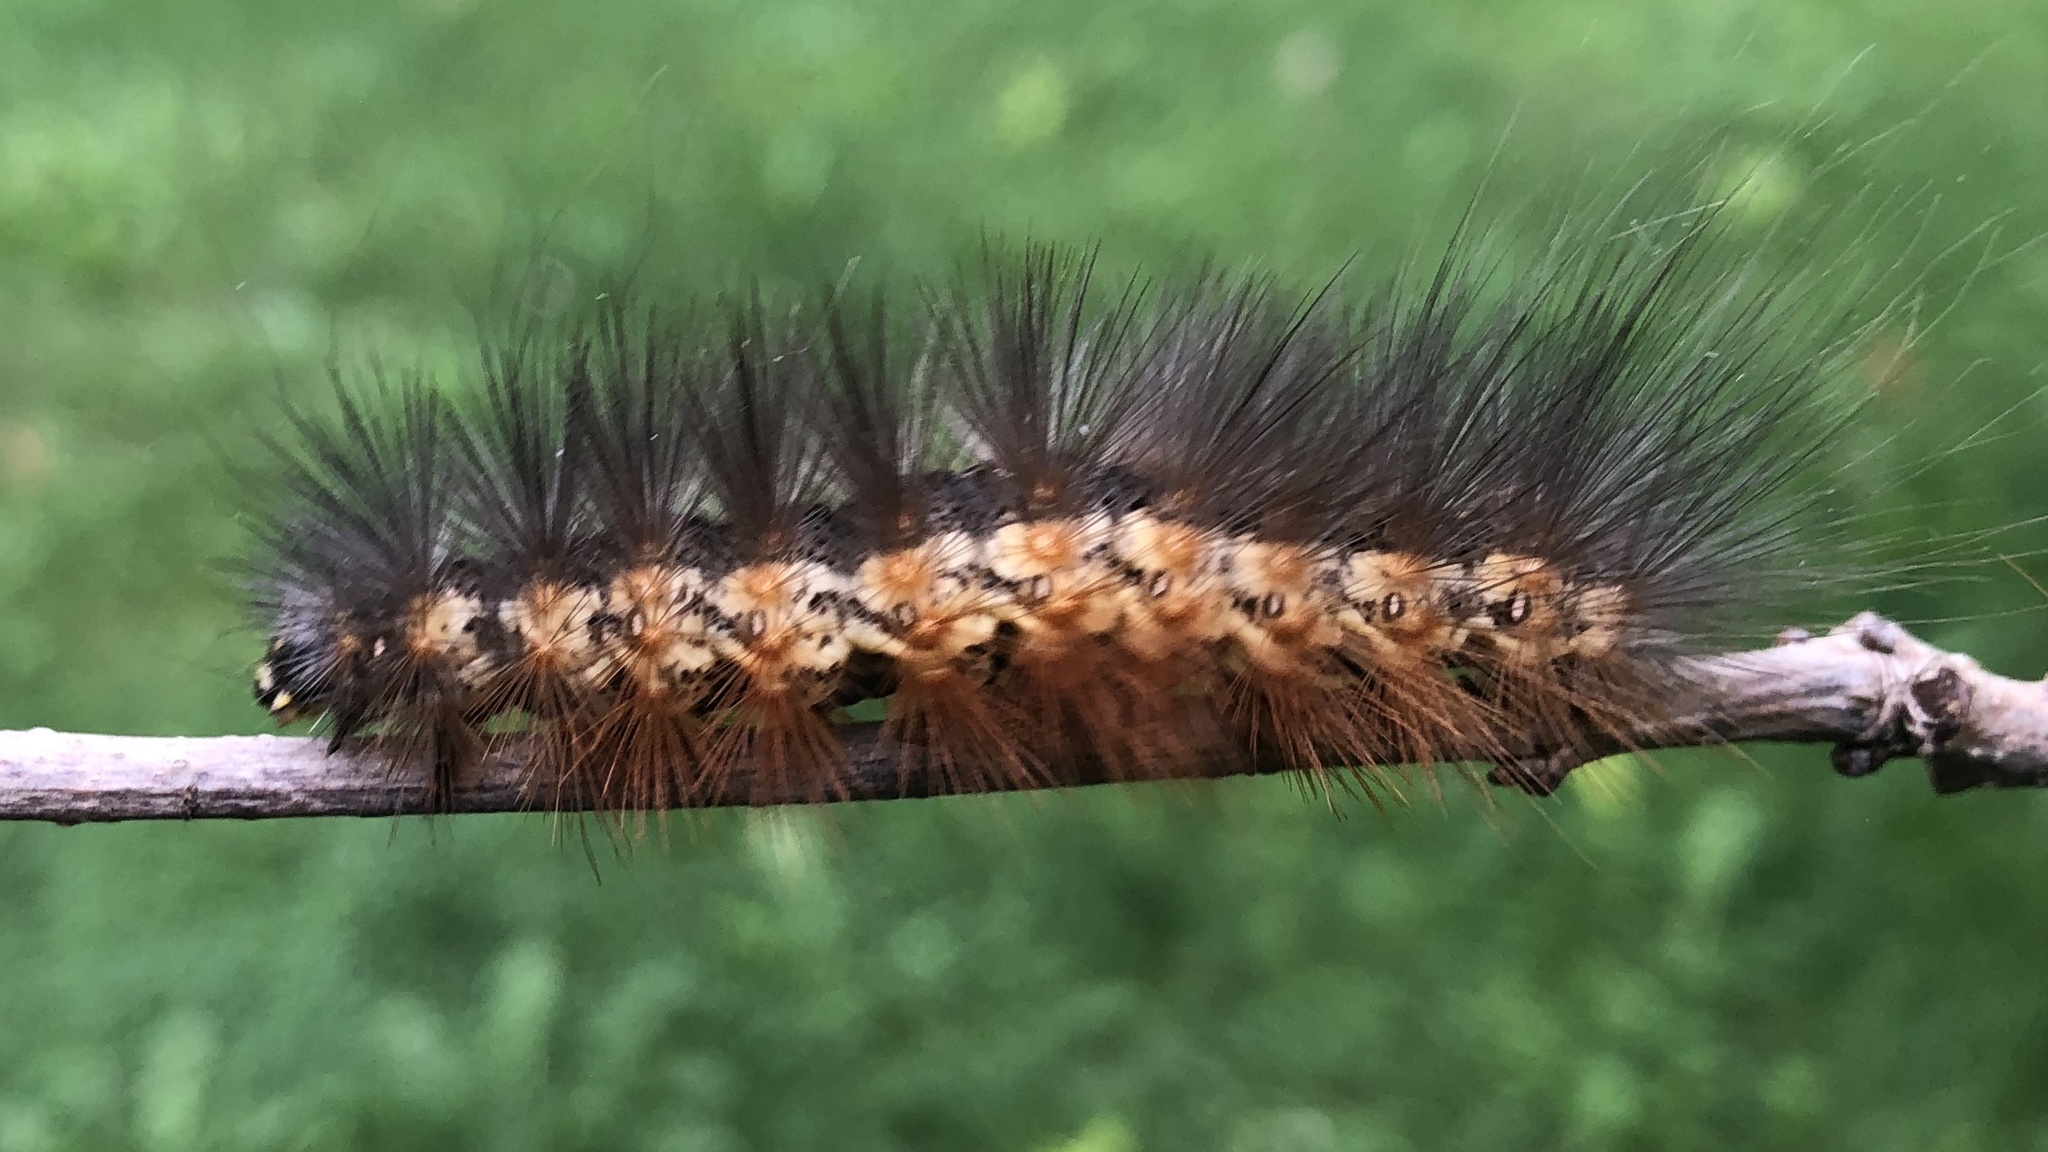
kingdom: Animalia
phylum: Arthropoda
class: Insecta
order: Lepidoptera
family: Erebidae
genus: Estigmene
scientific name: Estigmene acrea
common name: Salt marsh moth
